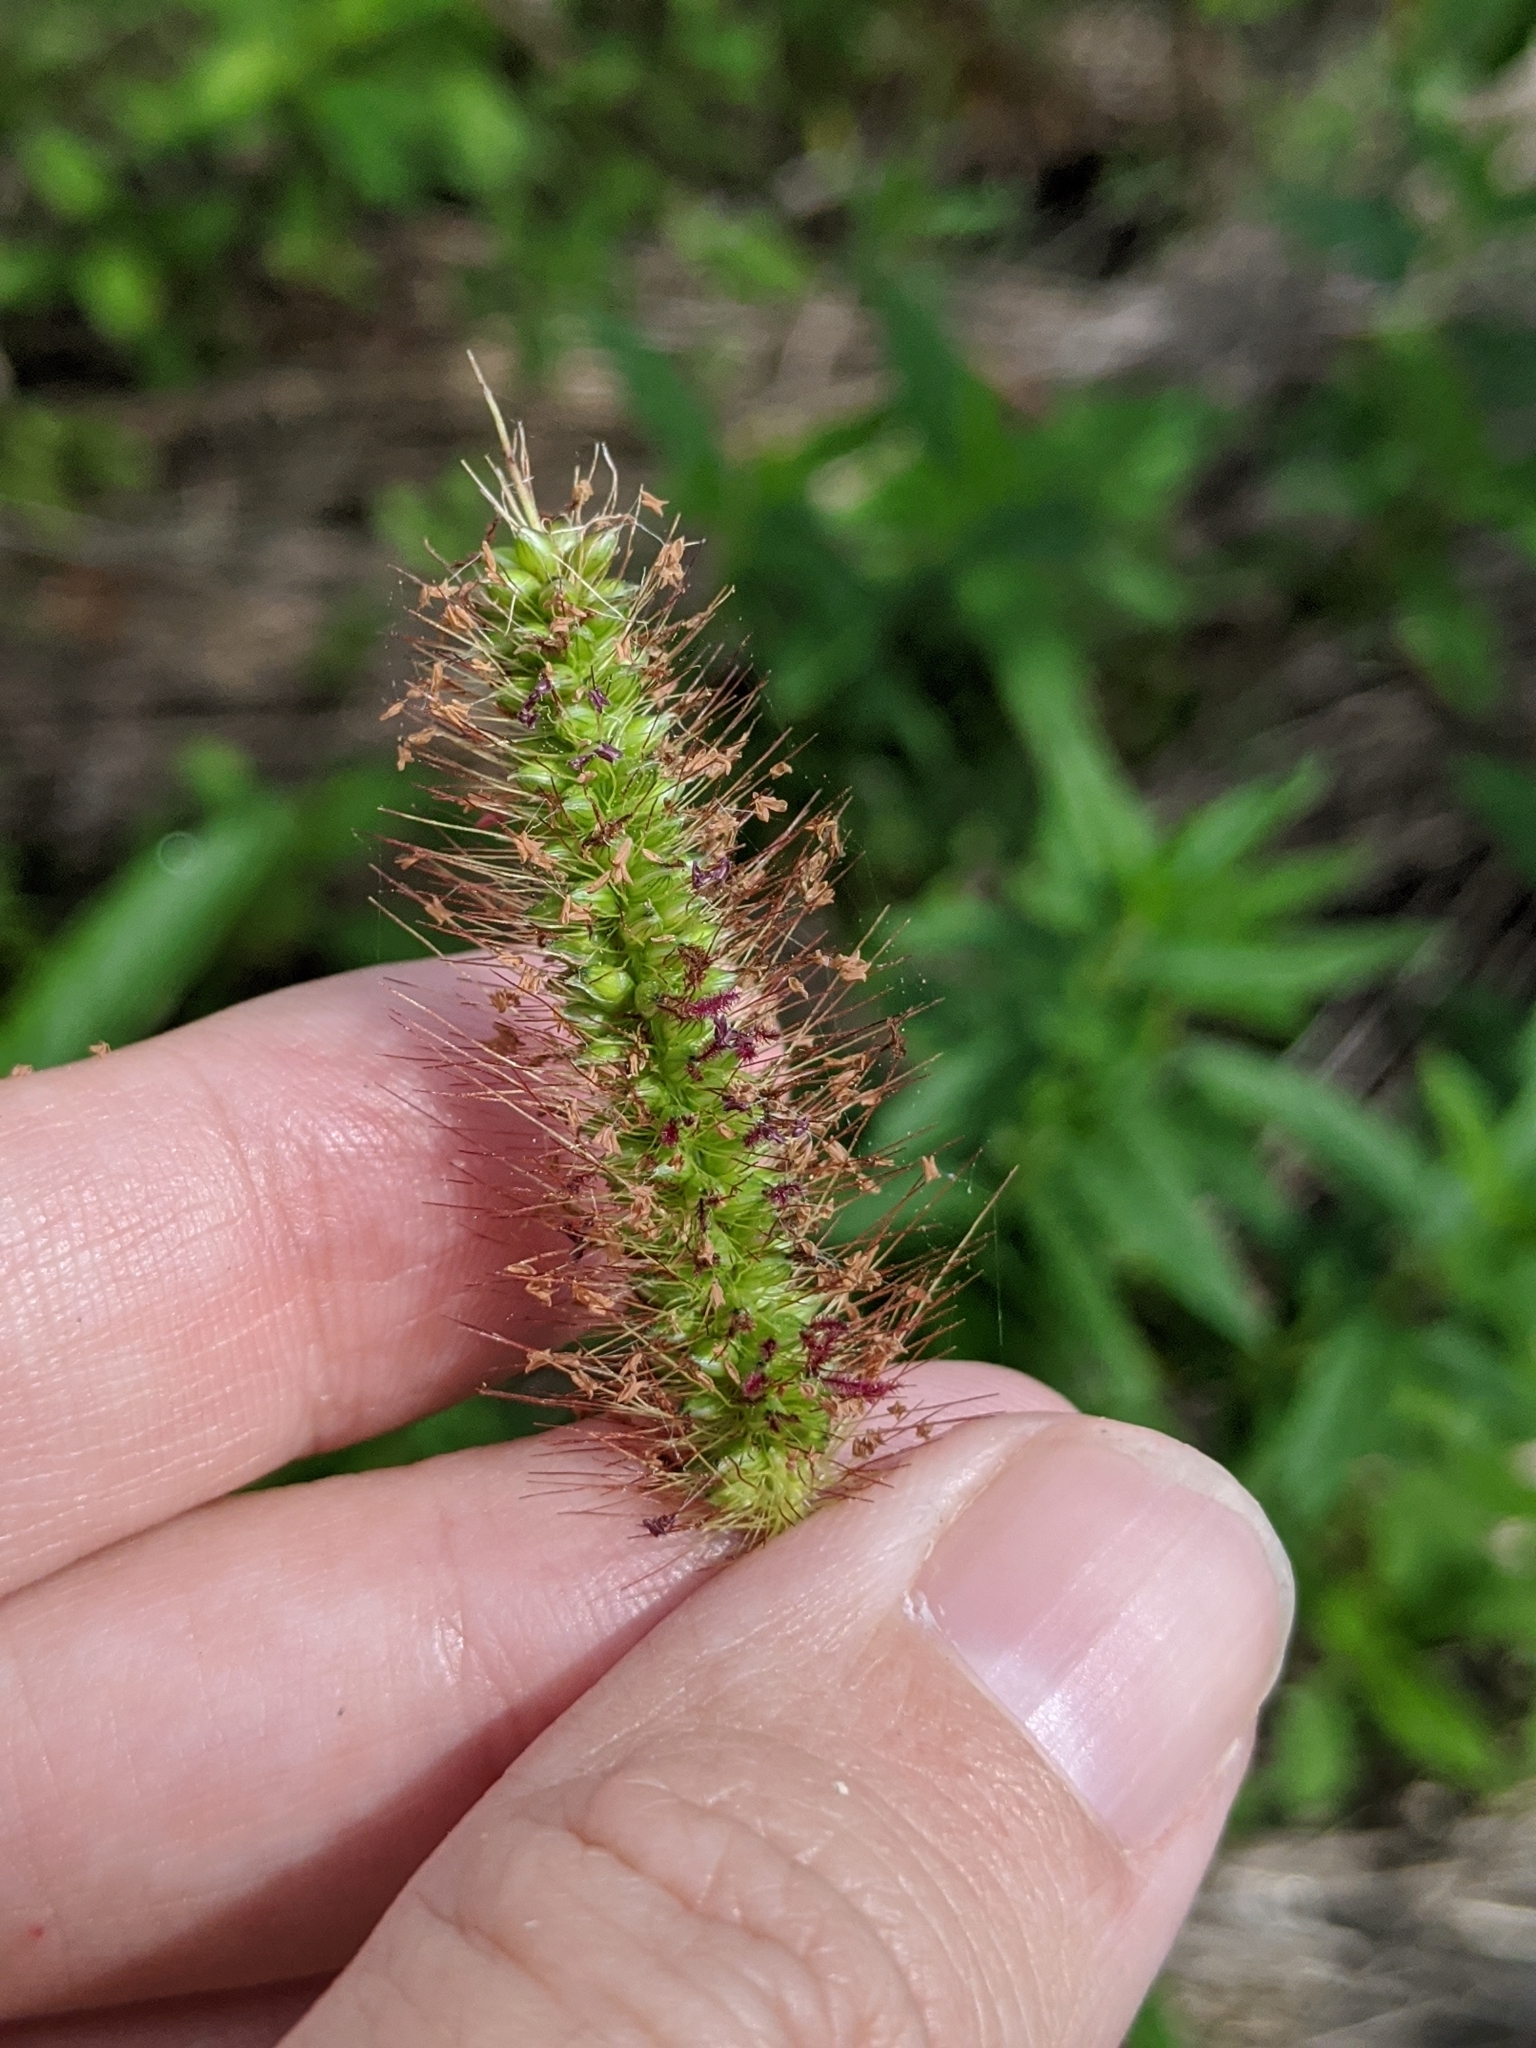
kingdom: Plantae
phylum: Tracheophyta
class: Liliopsida
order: Poales
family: Poaceae
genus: Setaria
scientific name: Setaria parviflora
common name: Knotroot bristle-grass
